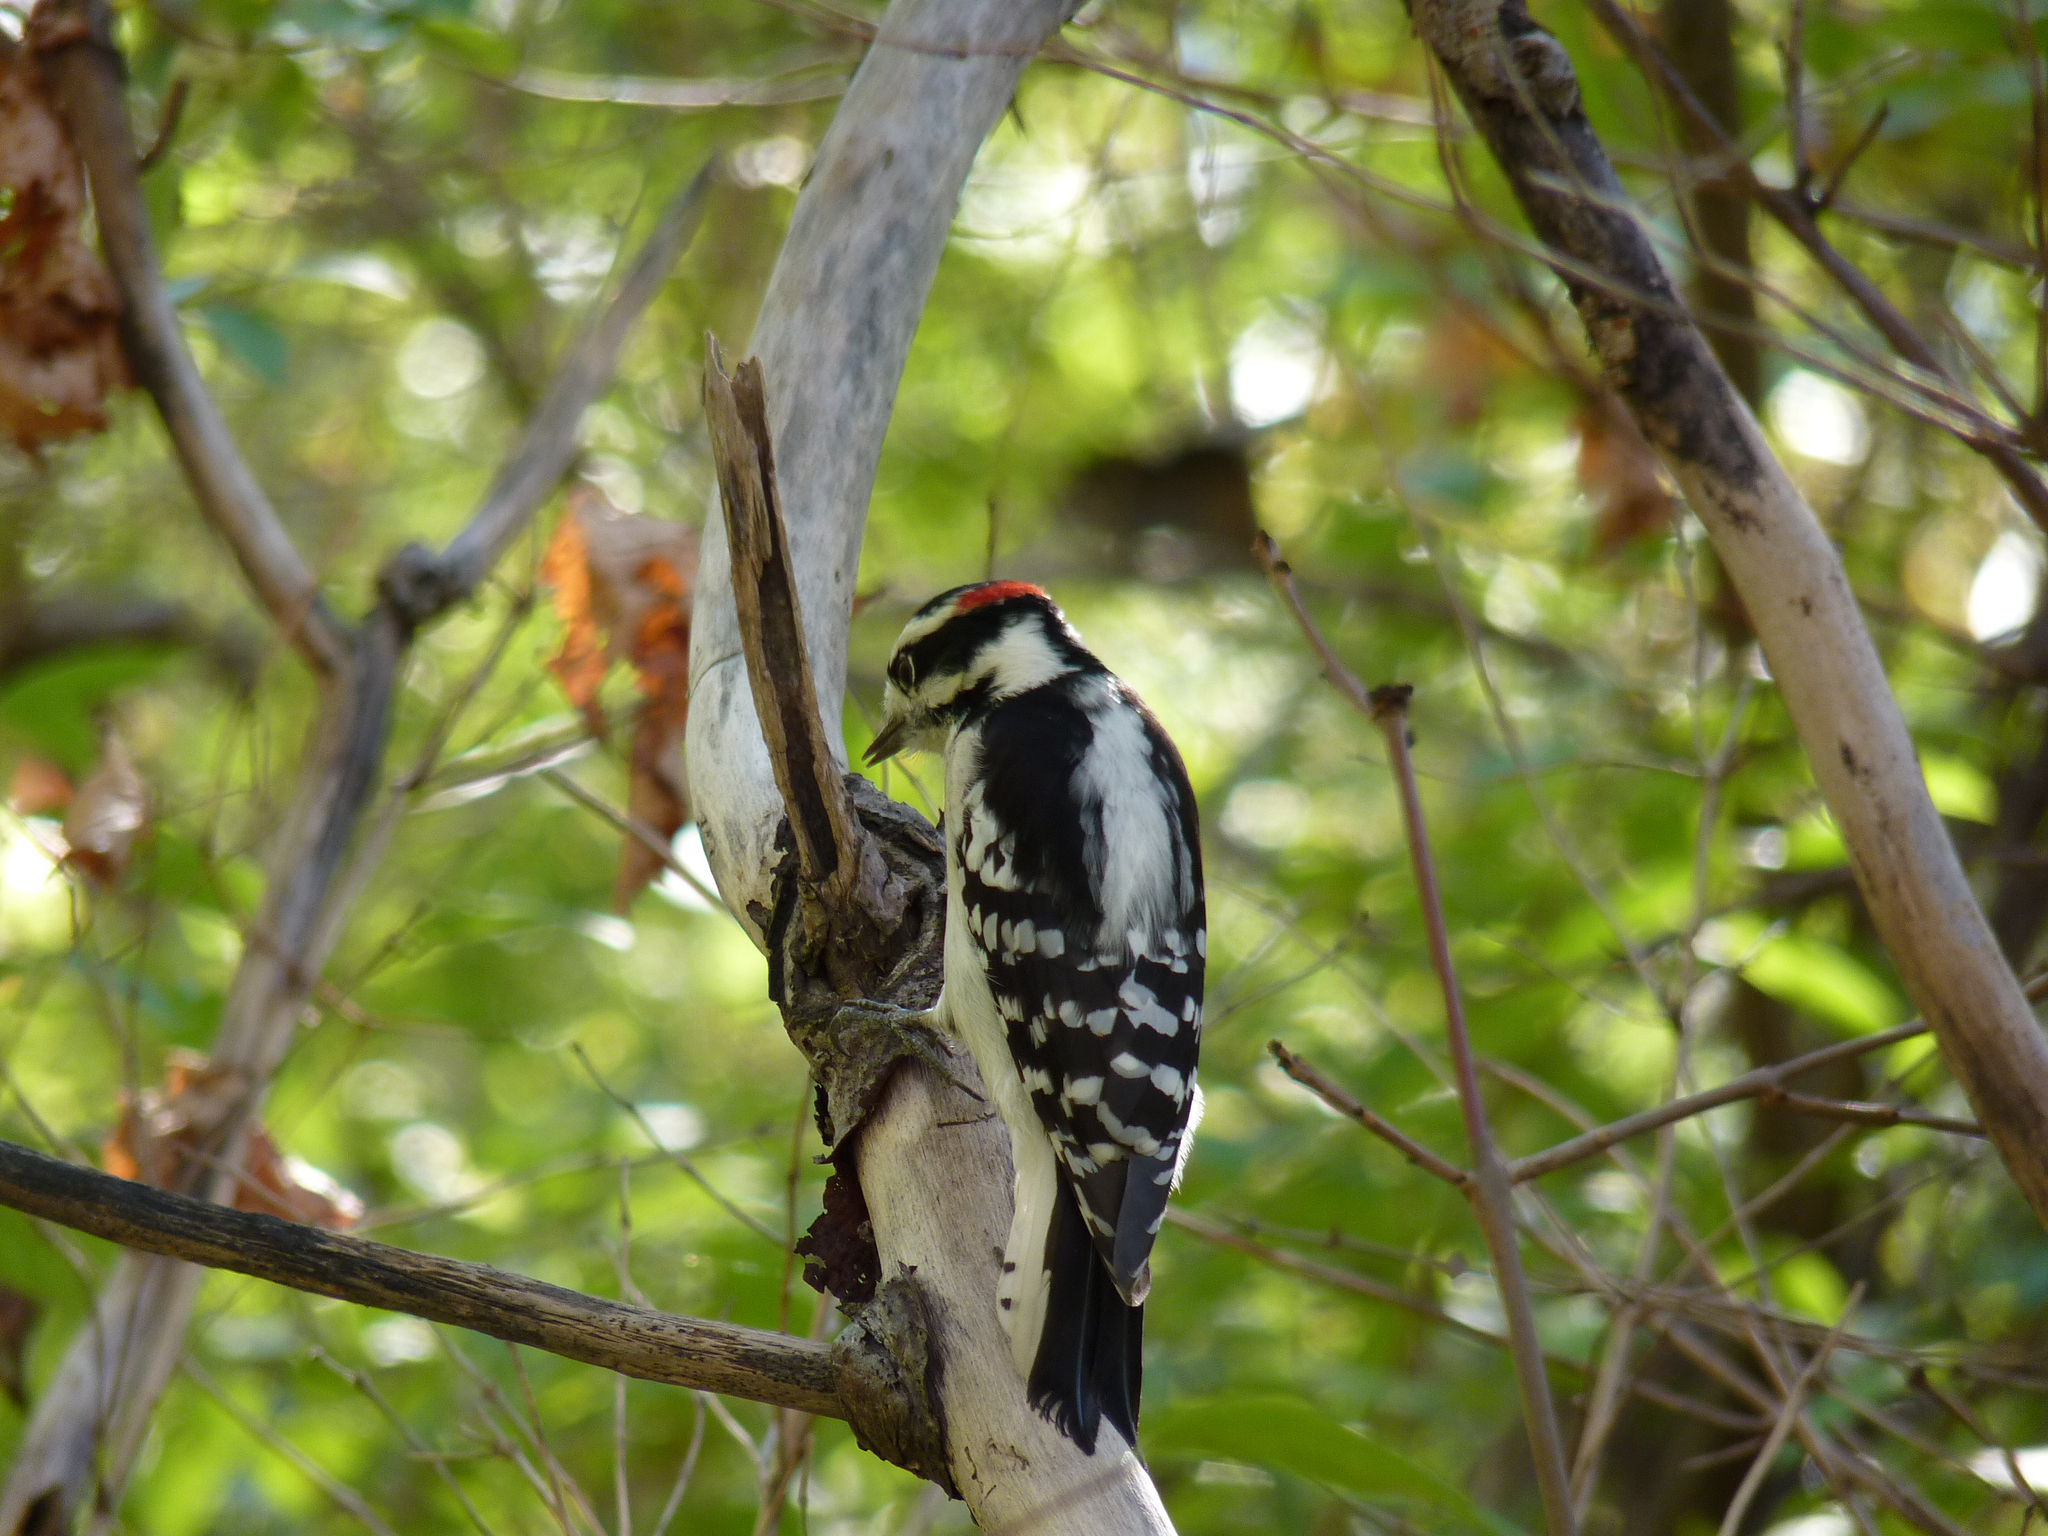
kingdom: Animalia
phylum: Chordata
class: Aves
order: Piciformes
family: Picidae
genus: Dryobates
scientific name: Dryobates pubescens
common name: Downy woodpecker
